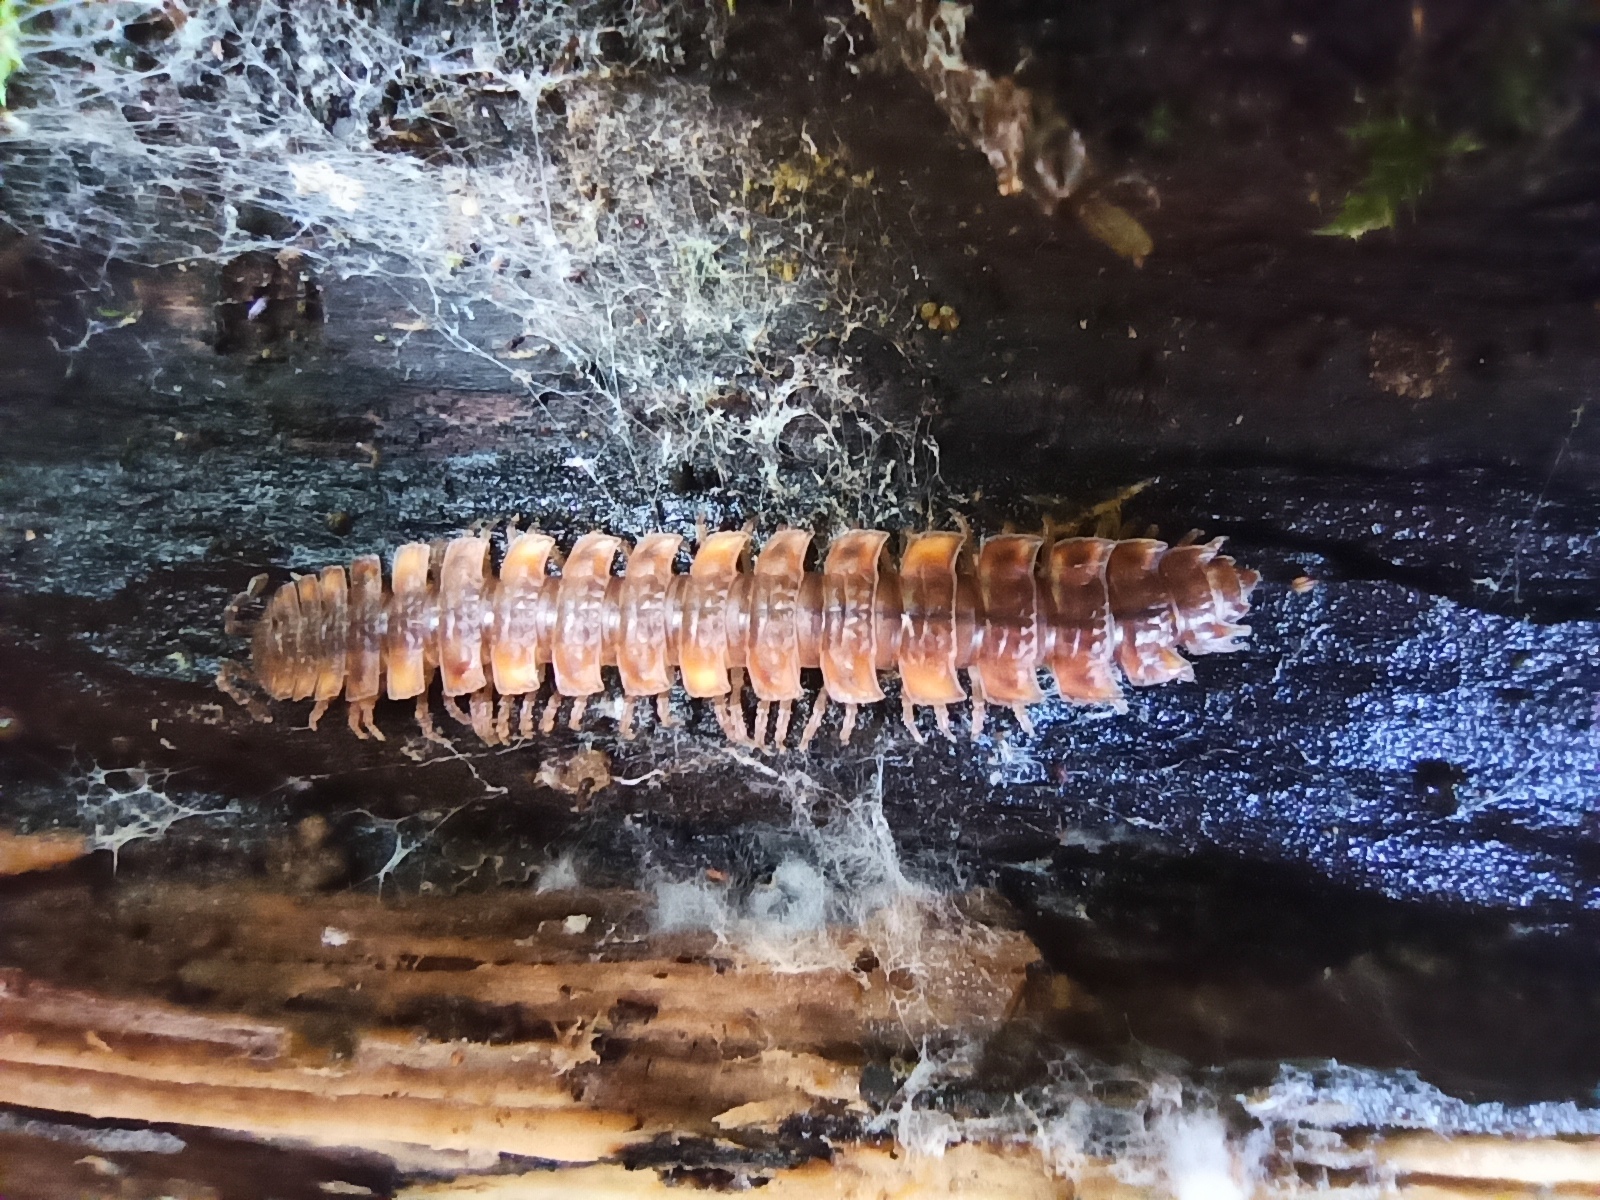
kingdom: Animalia
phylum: Arthropoda
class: Diplopoda
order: Polydesmida
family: Polydesmidae
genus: Polydesmus
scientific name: Polydesmus complanatus
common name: Flat-backed millipede
